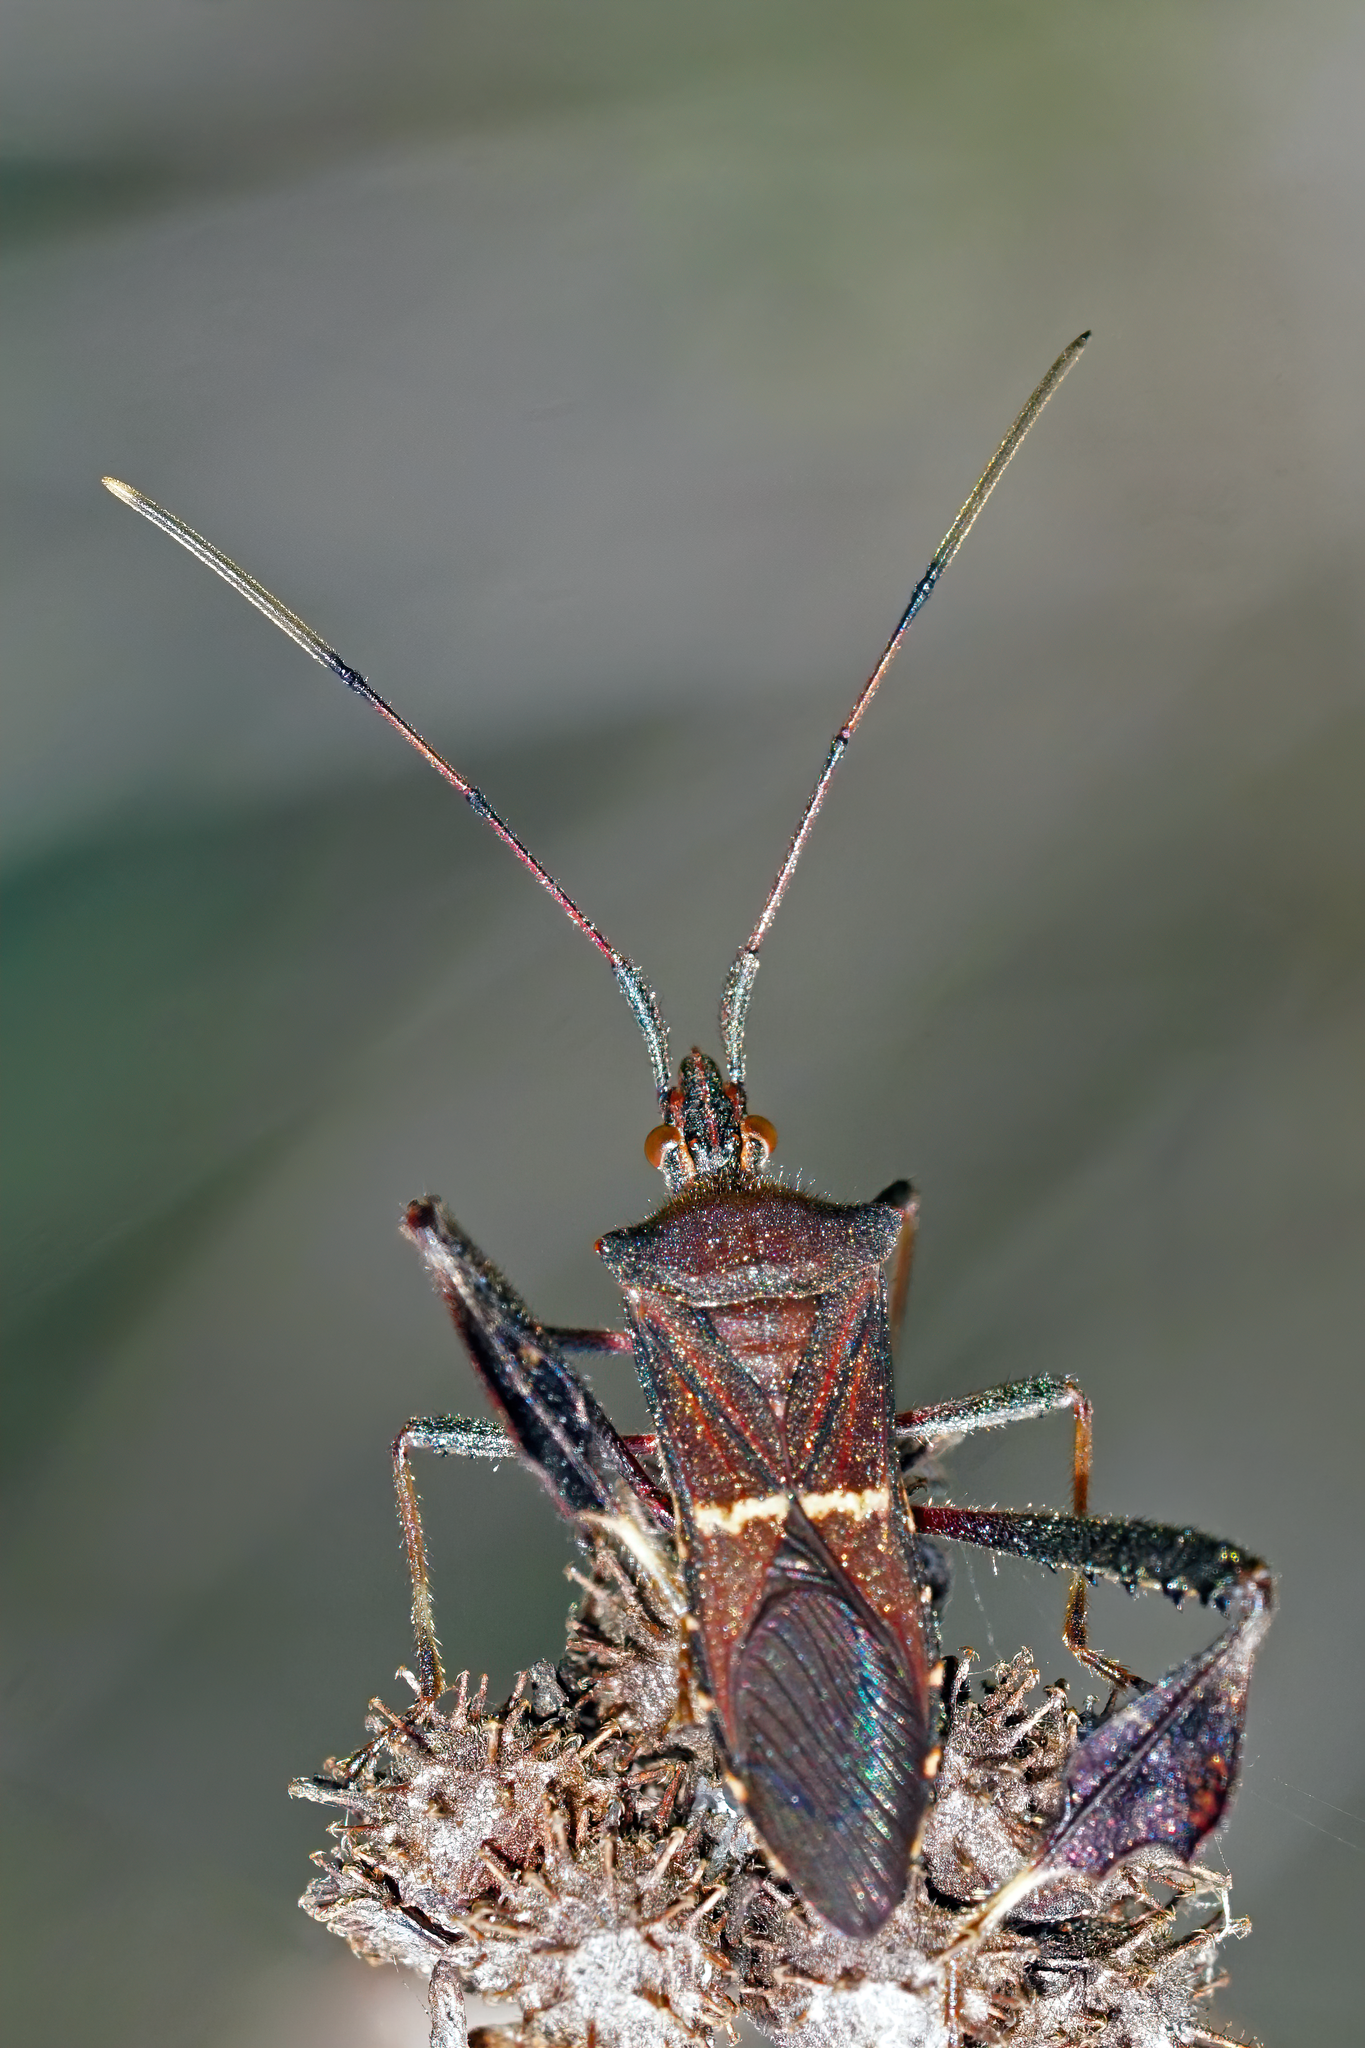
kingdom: Animalia
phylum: Arthropoda
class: Insecta
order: Hemiptera
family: Coreidae
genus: Leptoglossus
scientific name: Leptoglossus phyllopus
